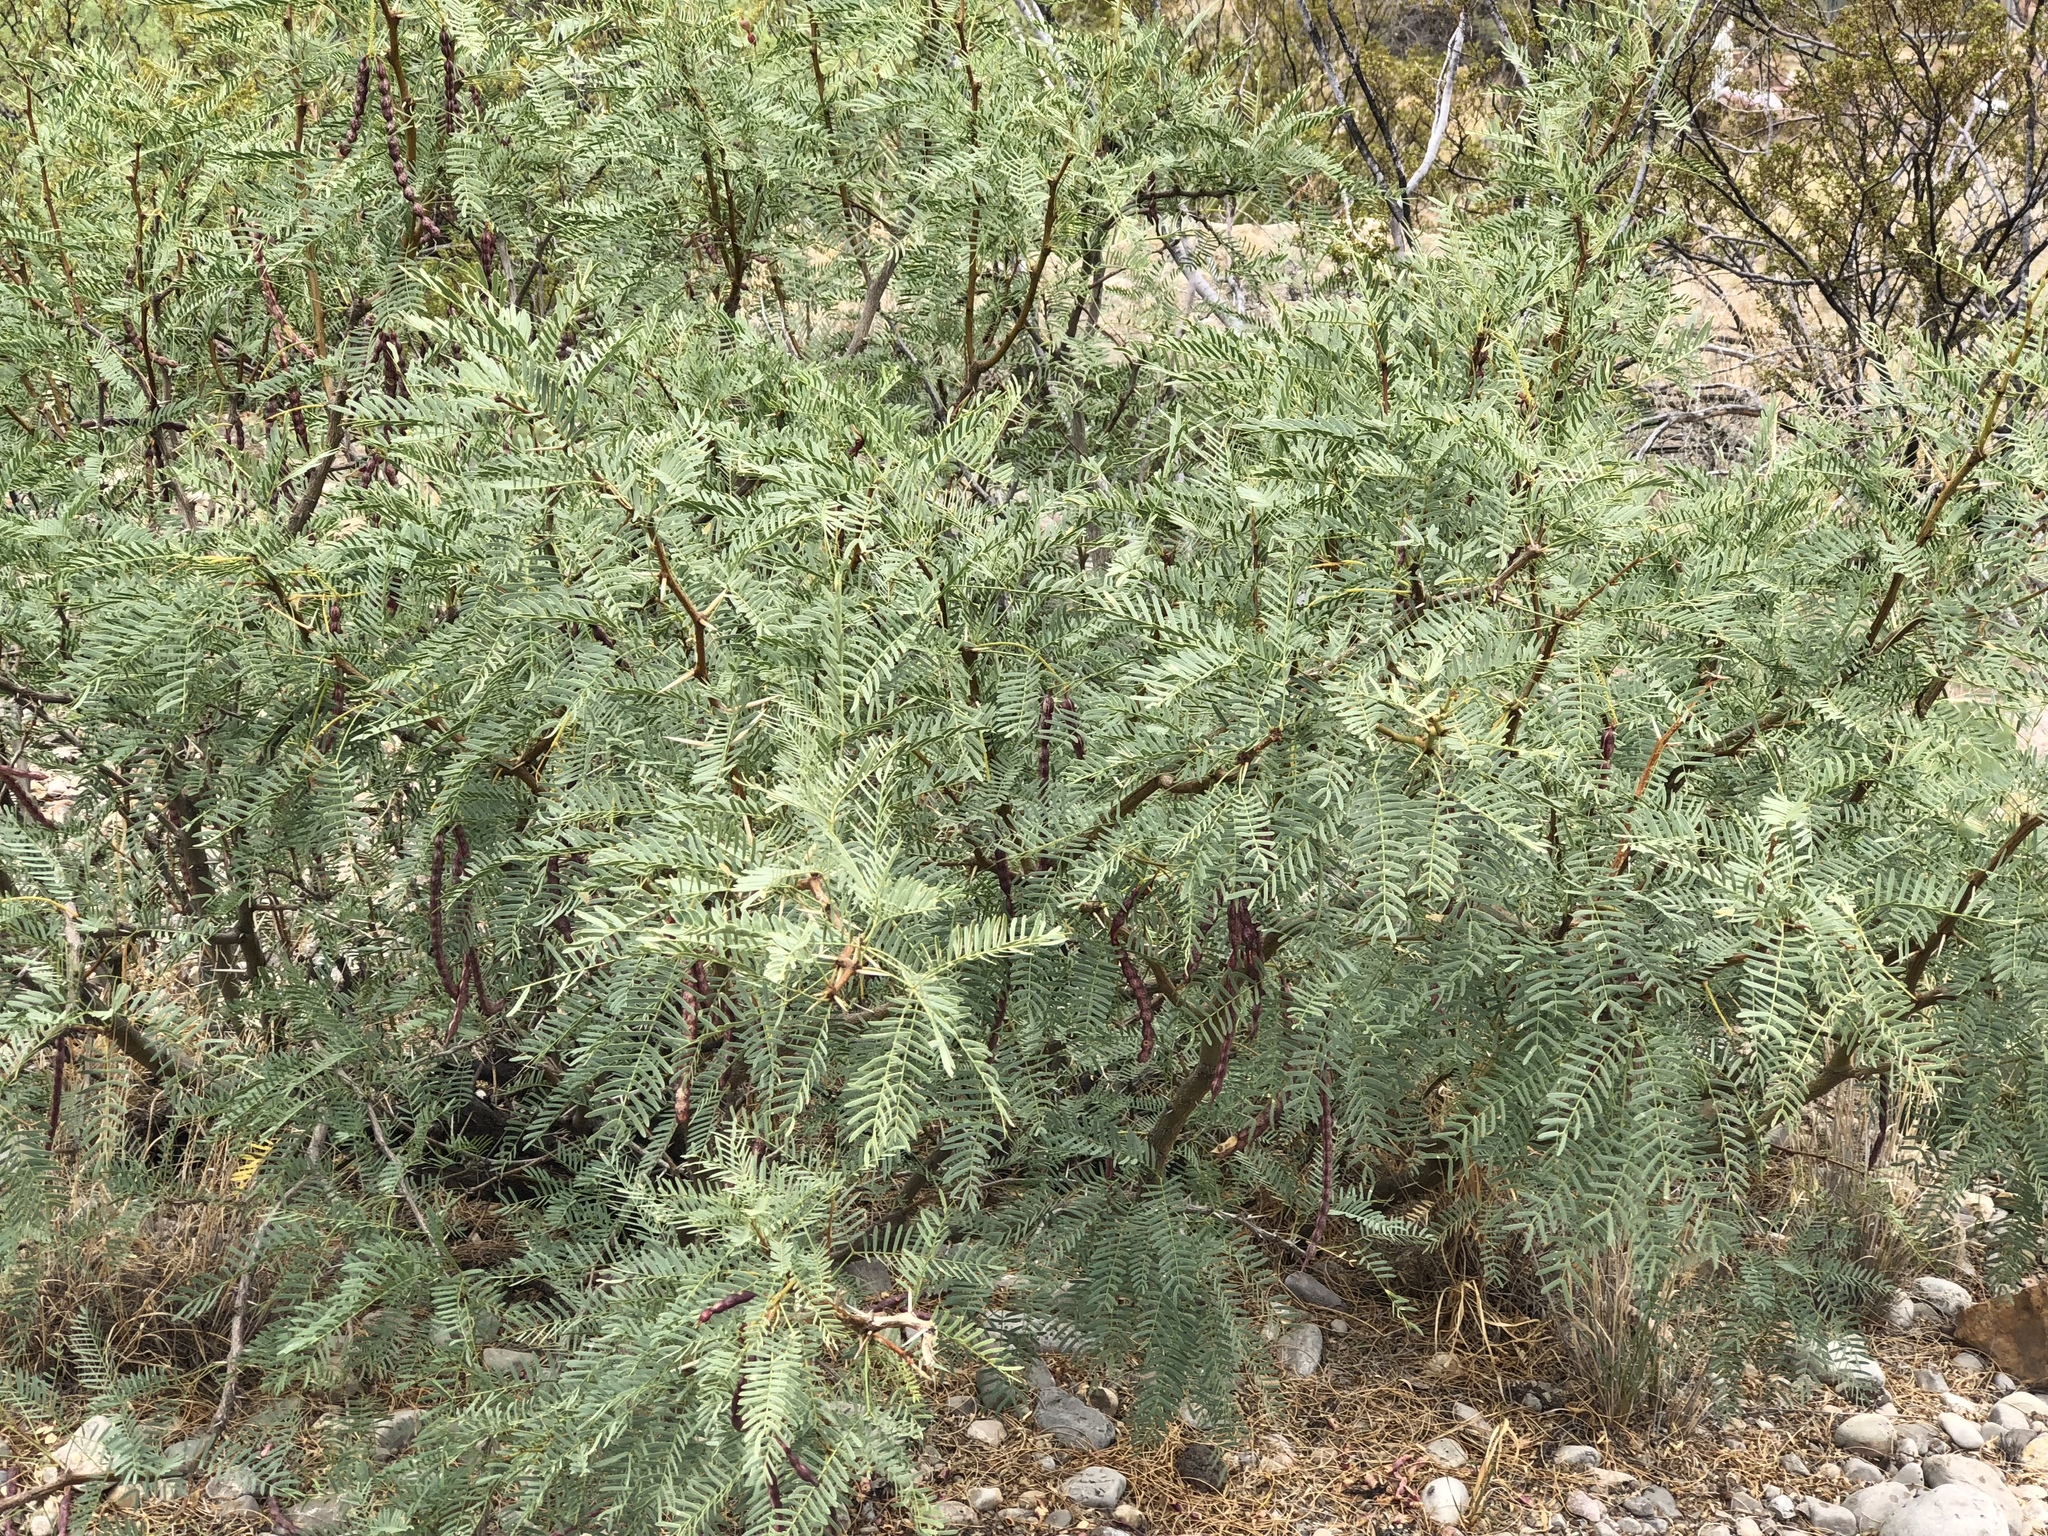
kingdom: Plantae
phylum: Tracheophyta
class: Magnoliopsida
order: Fabales
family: Fabaceae
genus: Prosopis
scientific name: Prosopis glandulosa
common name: Honey mesquite
